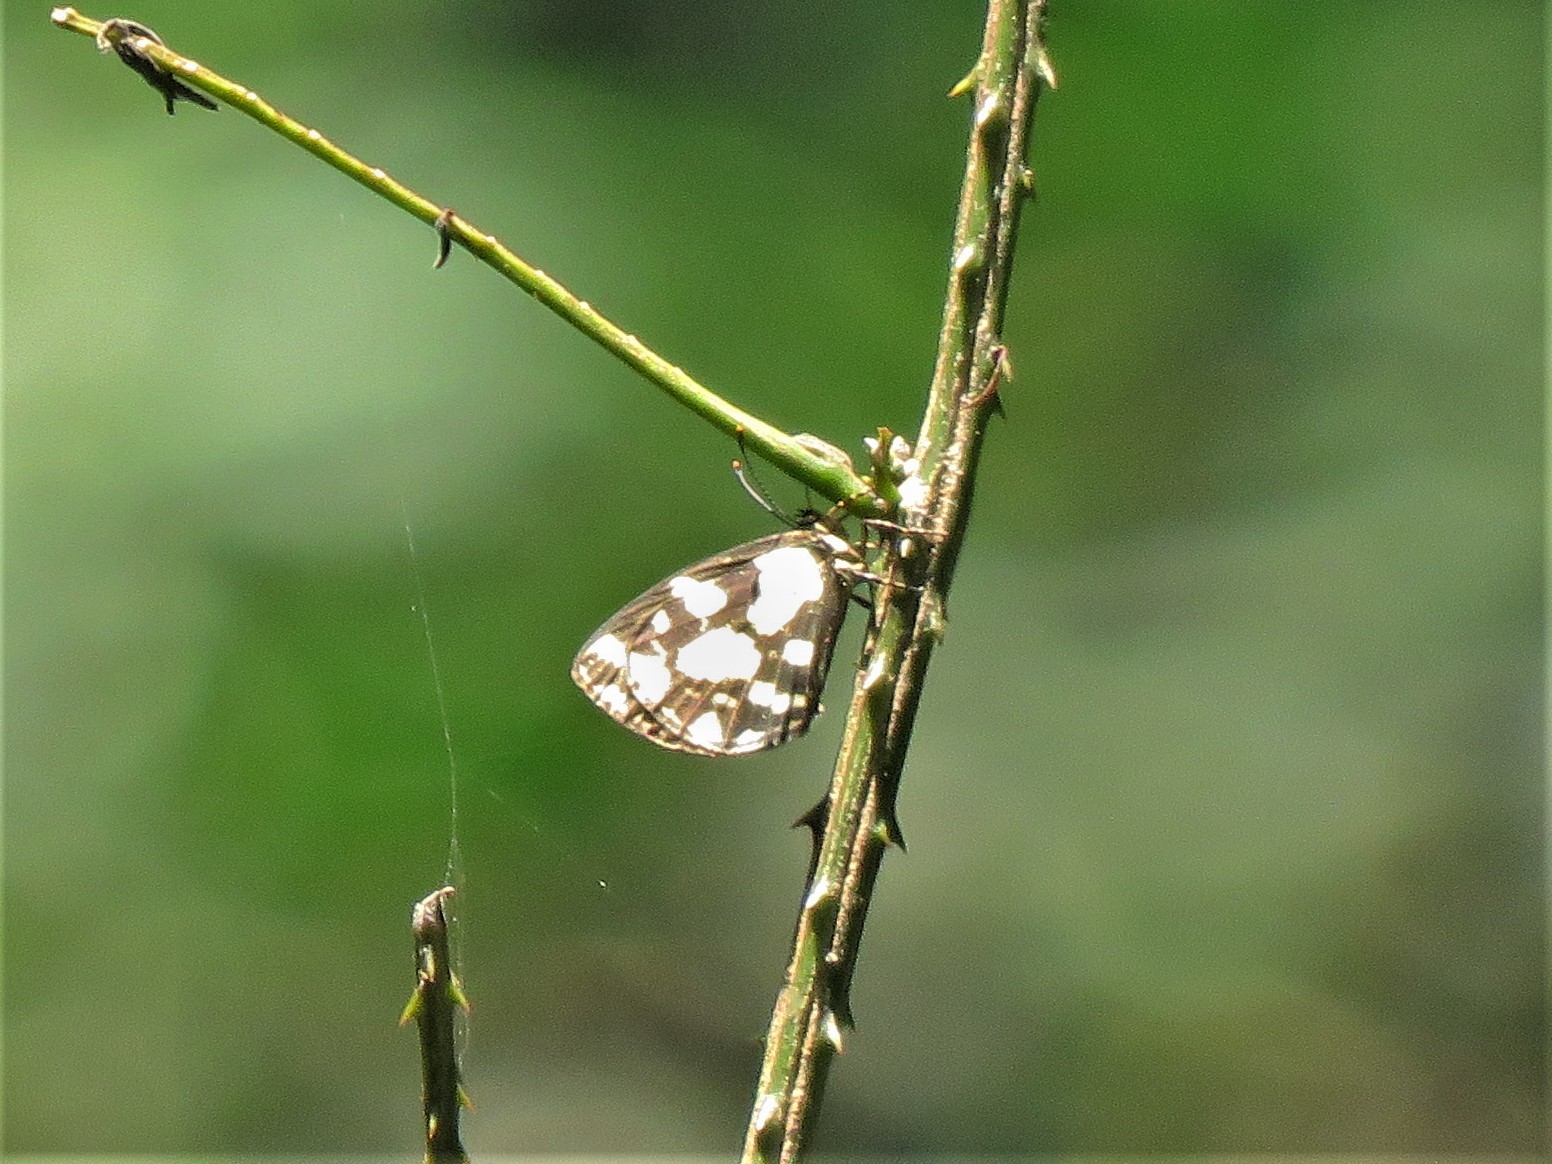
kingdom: Animalia
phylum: Arthropoda
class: Insecta
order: Lepidoptera
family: Lycaenidae
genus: Falcuna
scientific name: Falcuna orientalis
